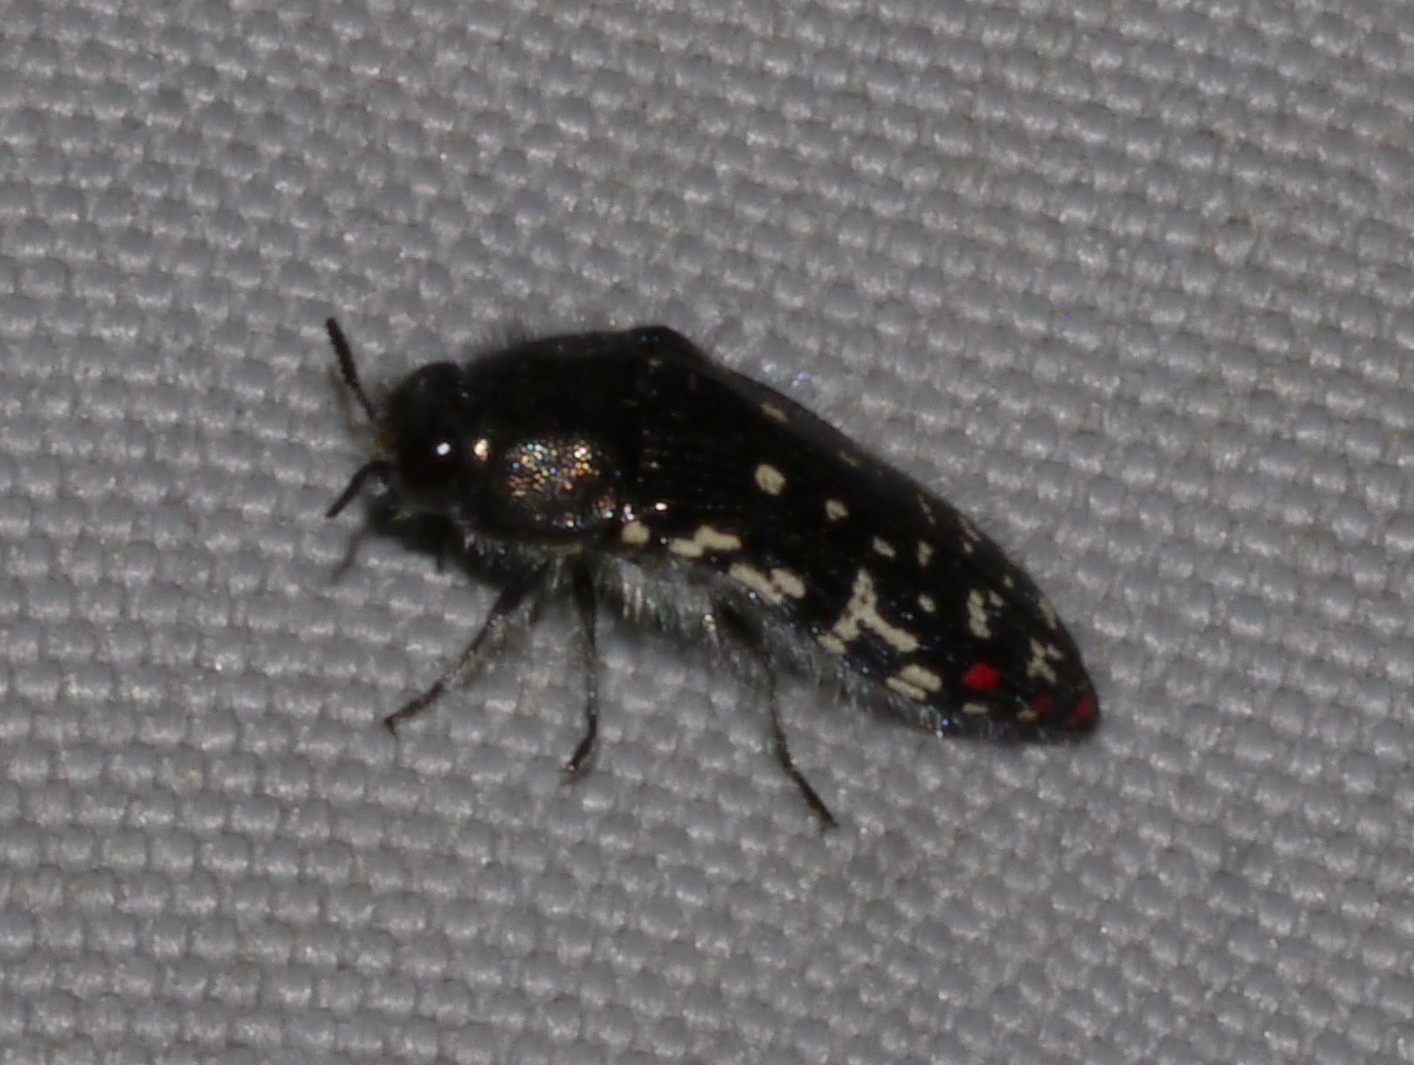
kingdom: Animalia
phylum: Arthropoda
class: Insecta
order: Coleoptera
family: Buprestidae
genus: Acmaeodera
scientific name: Acmaeodera rubronotata
